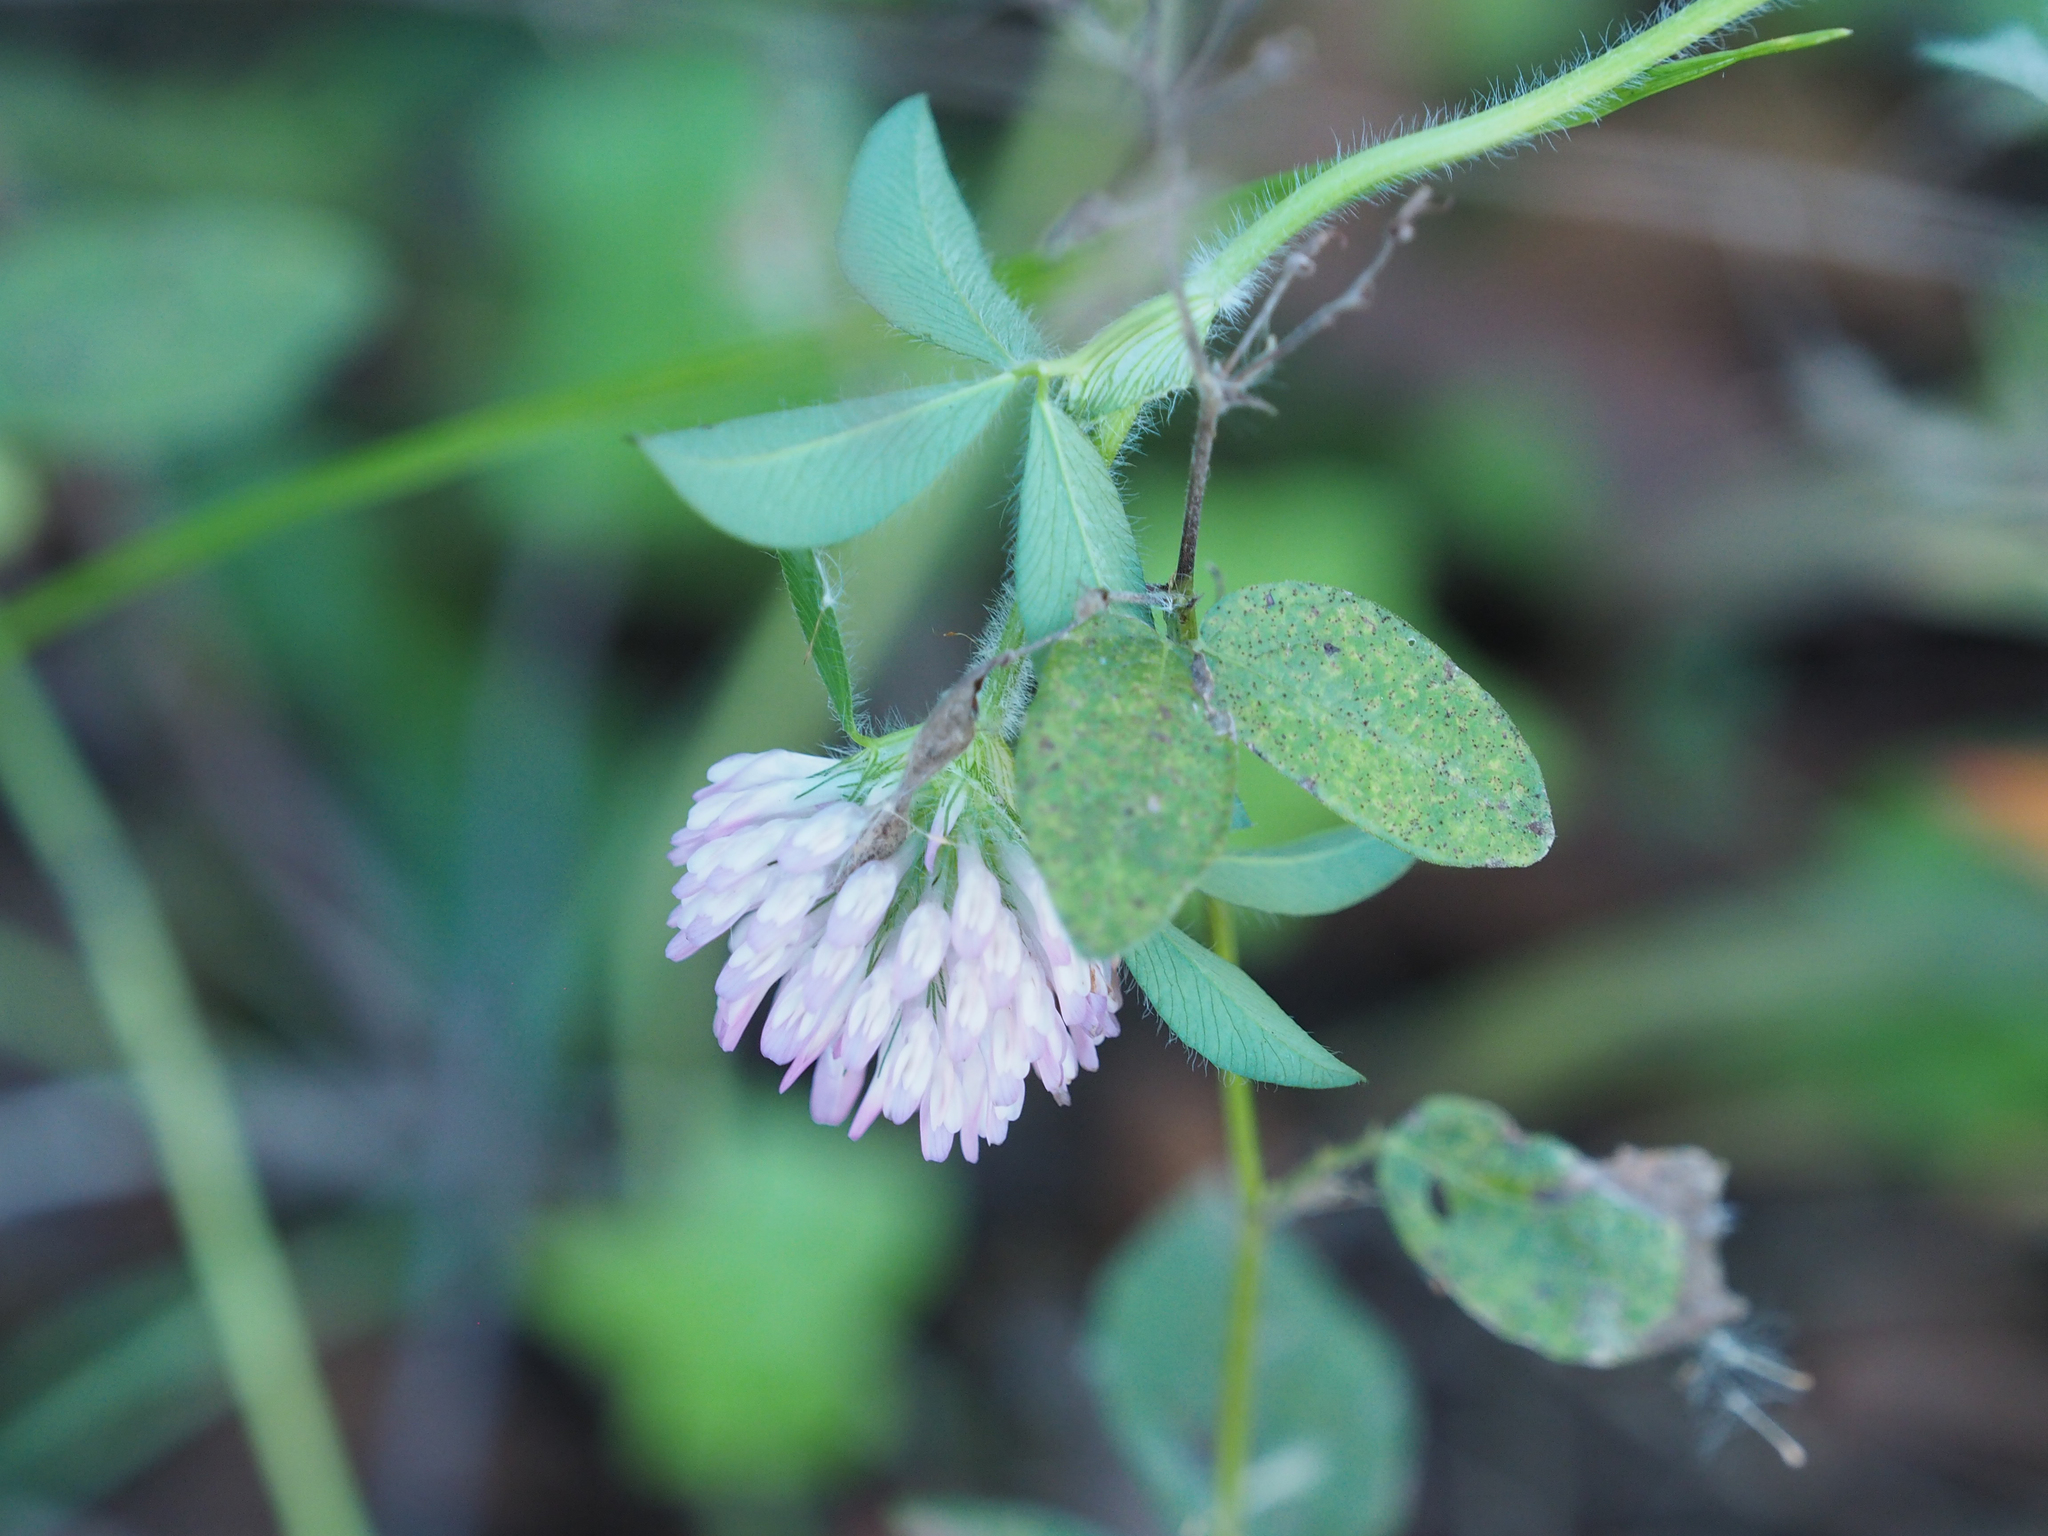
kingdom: Plantae
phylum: Tracheophyta
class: Magnoliopsida
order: Fabales
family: Fabaceae
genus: Trifolium
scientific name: Trifolium pratense
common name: Red clover
